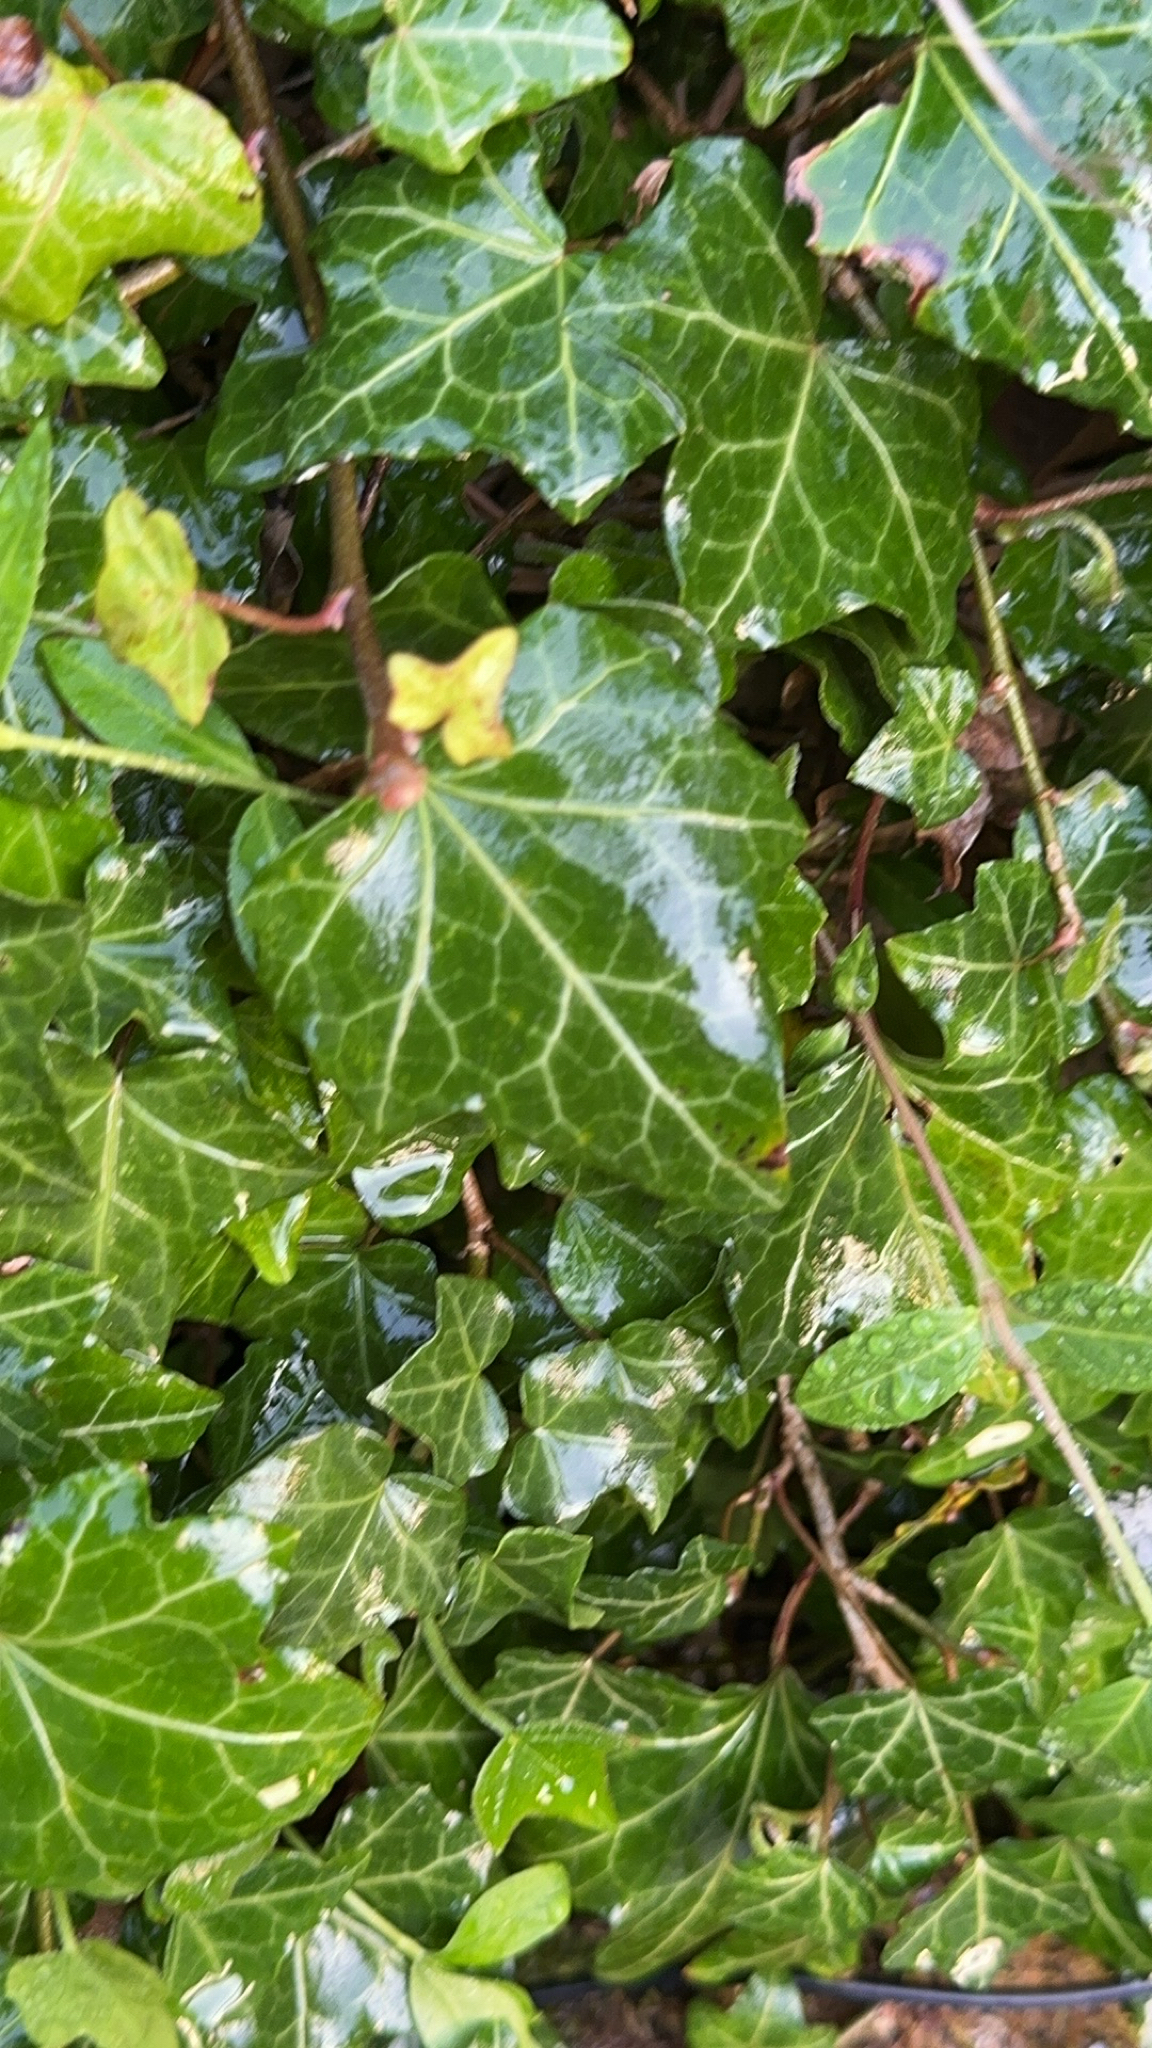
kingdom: Plantae
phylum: Tracheophyta
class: Magnoliopsida
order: Apiales
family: Araliaceae
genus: Hedera
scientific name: Hedera helix
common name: Ivy
